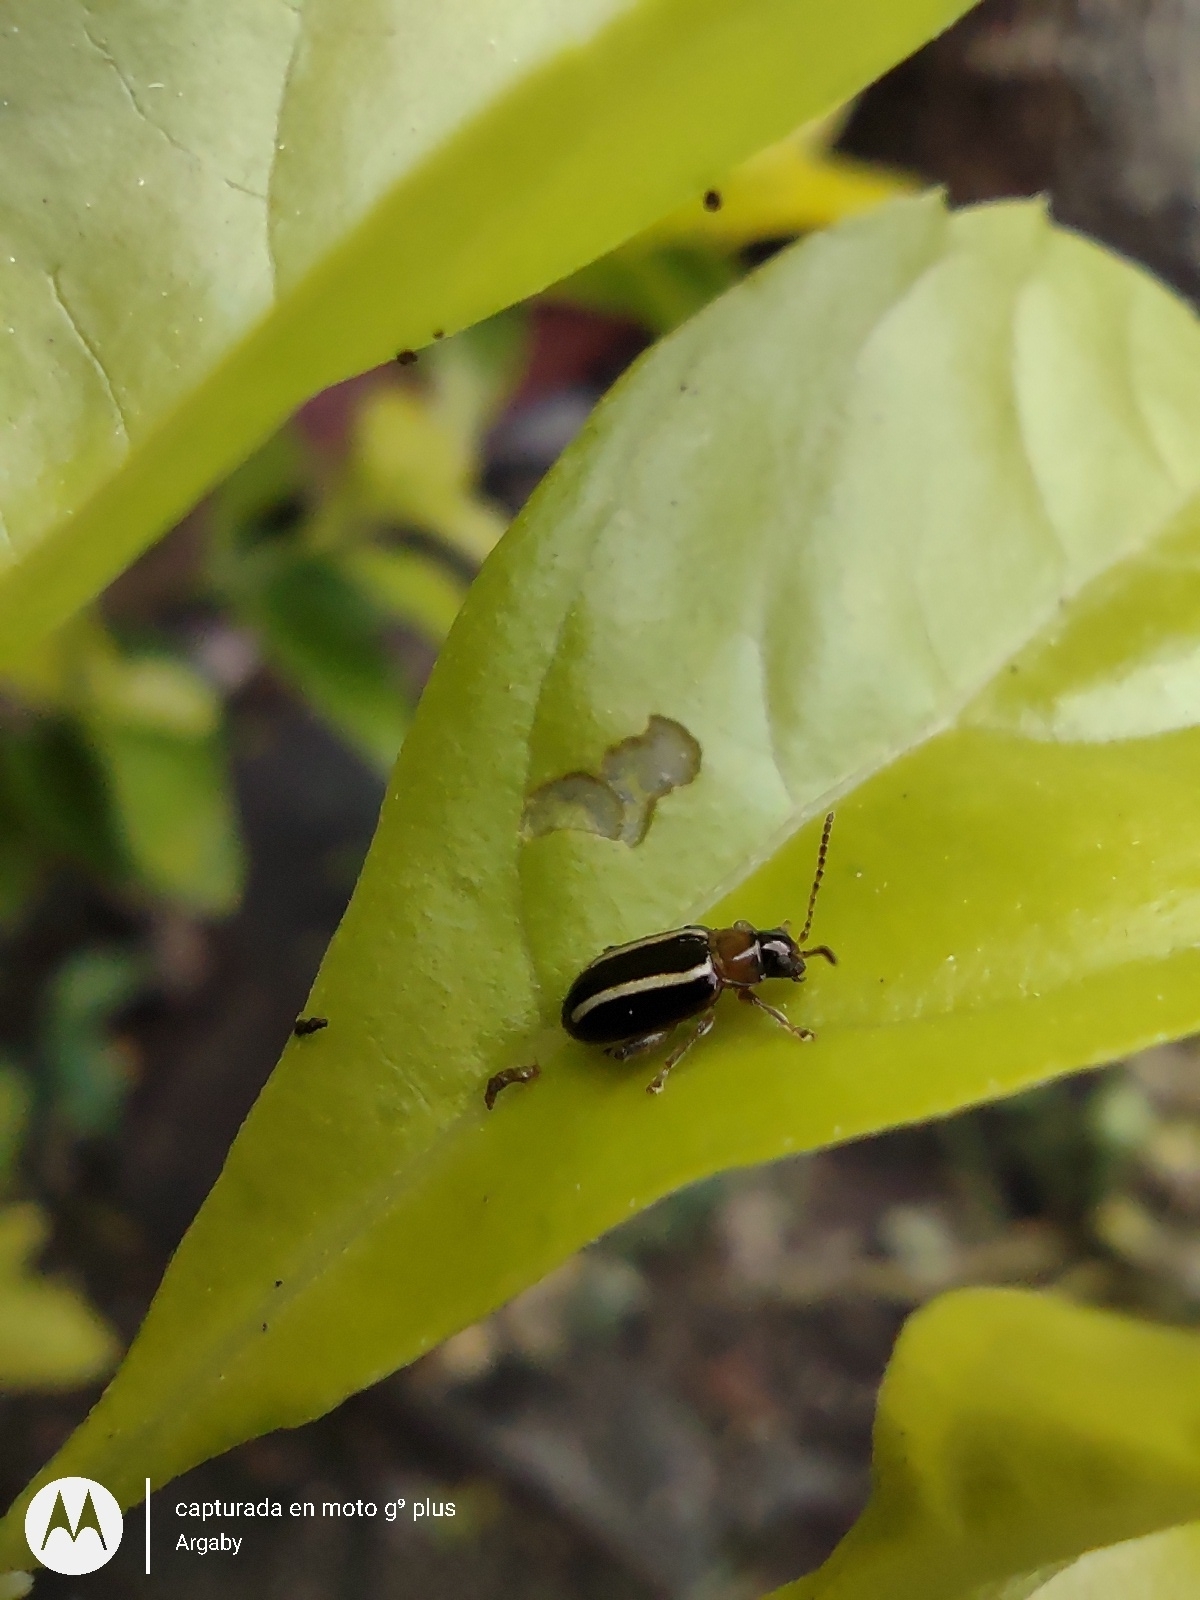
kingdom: Animalia
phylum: Arthropoda
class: Insecta
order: Coleoptera
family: Chrysomelidae
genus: Systena
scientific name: Systena
